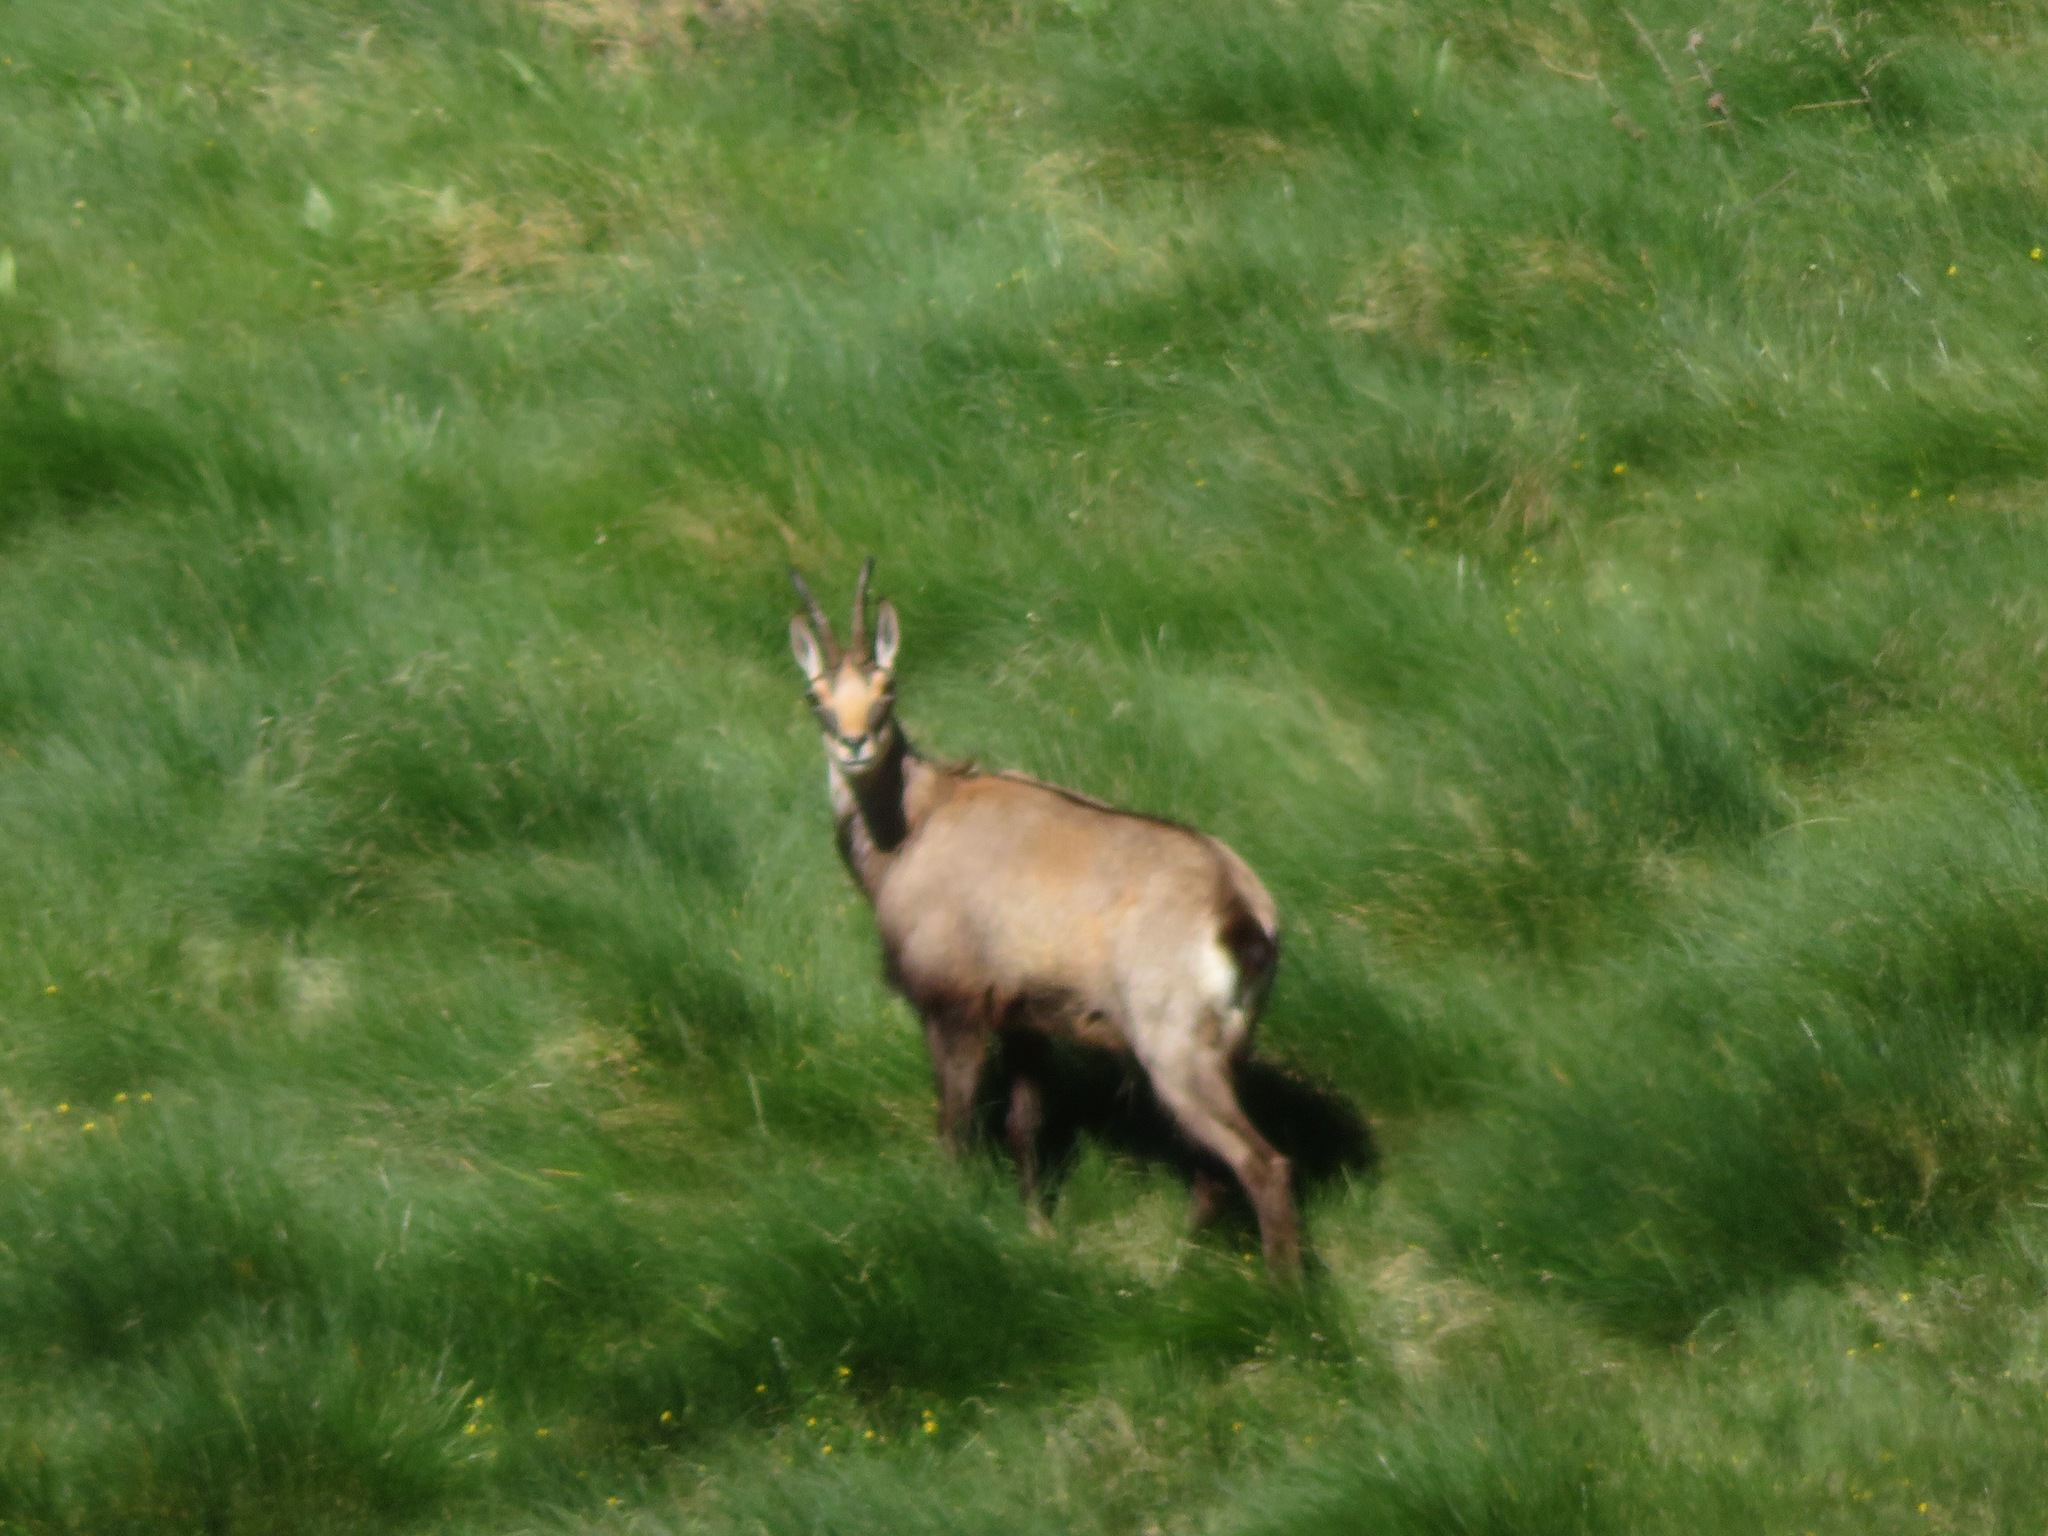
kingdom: Animalia
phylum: Chordata
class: Mammalia
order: Artiodactyla
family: Bovidae
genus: Rupicapra
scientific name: Rupicapra rupicapra
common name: Chamois
